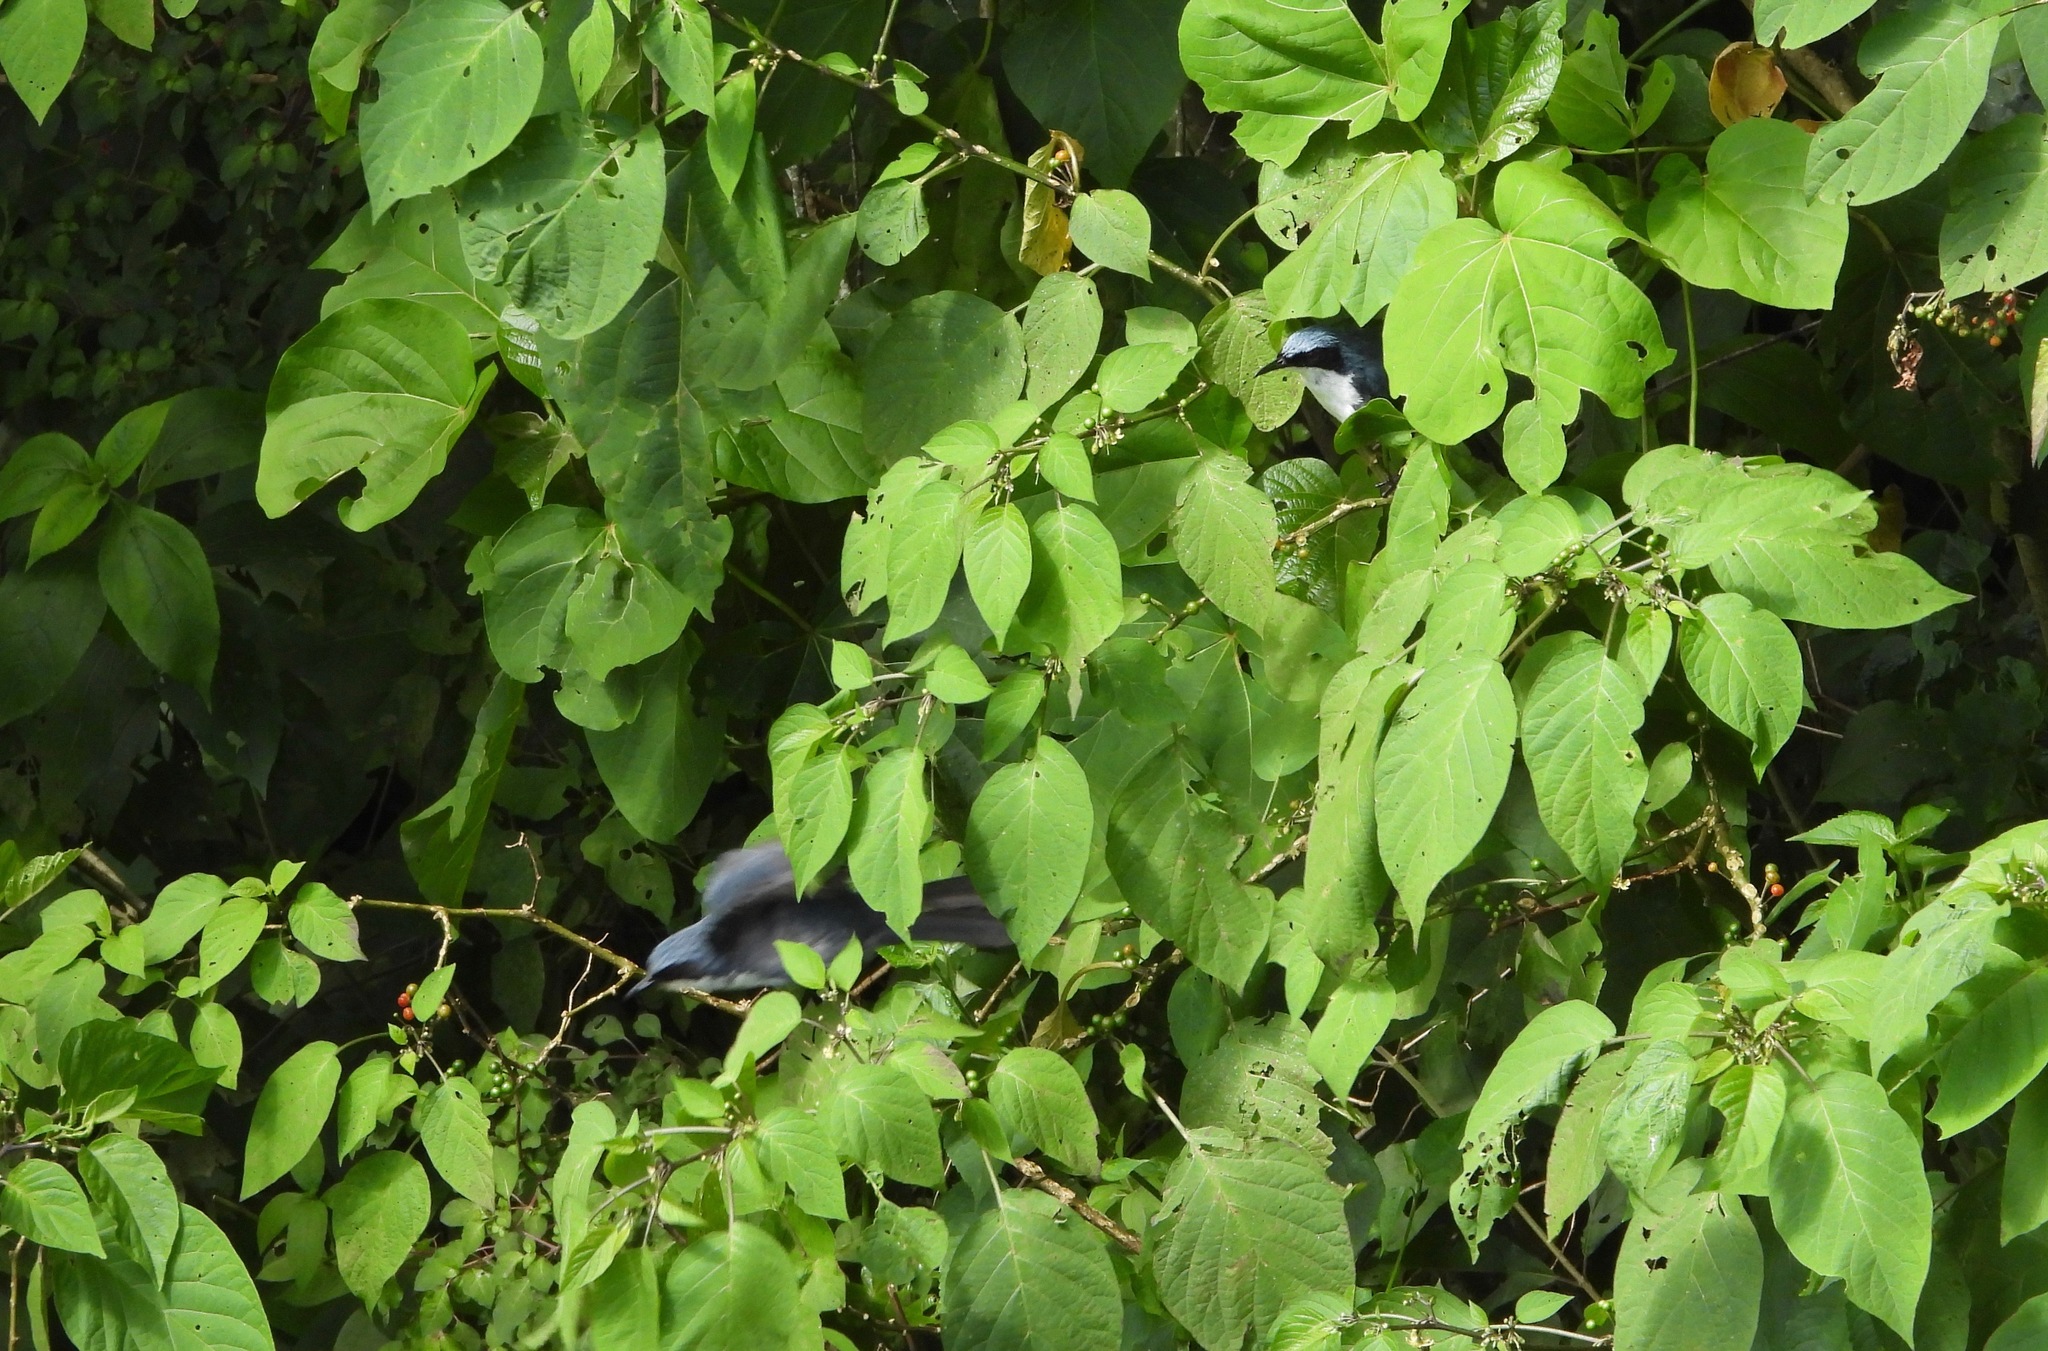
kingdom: Animalia
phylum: Chordata
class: Aves
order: Passeriformes
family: Mimidae
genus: Melanotis
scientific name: Melanotis hypoleucus
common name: Blue-and-white mockingbird
